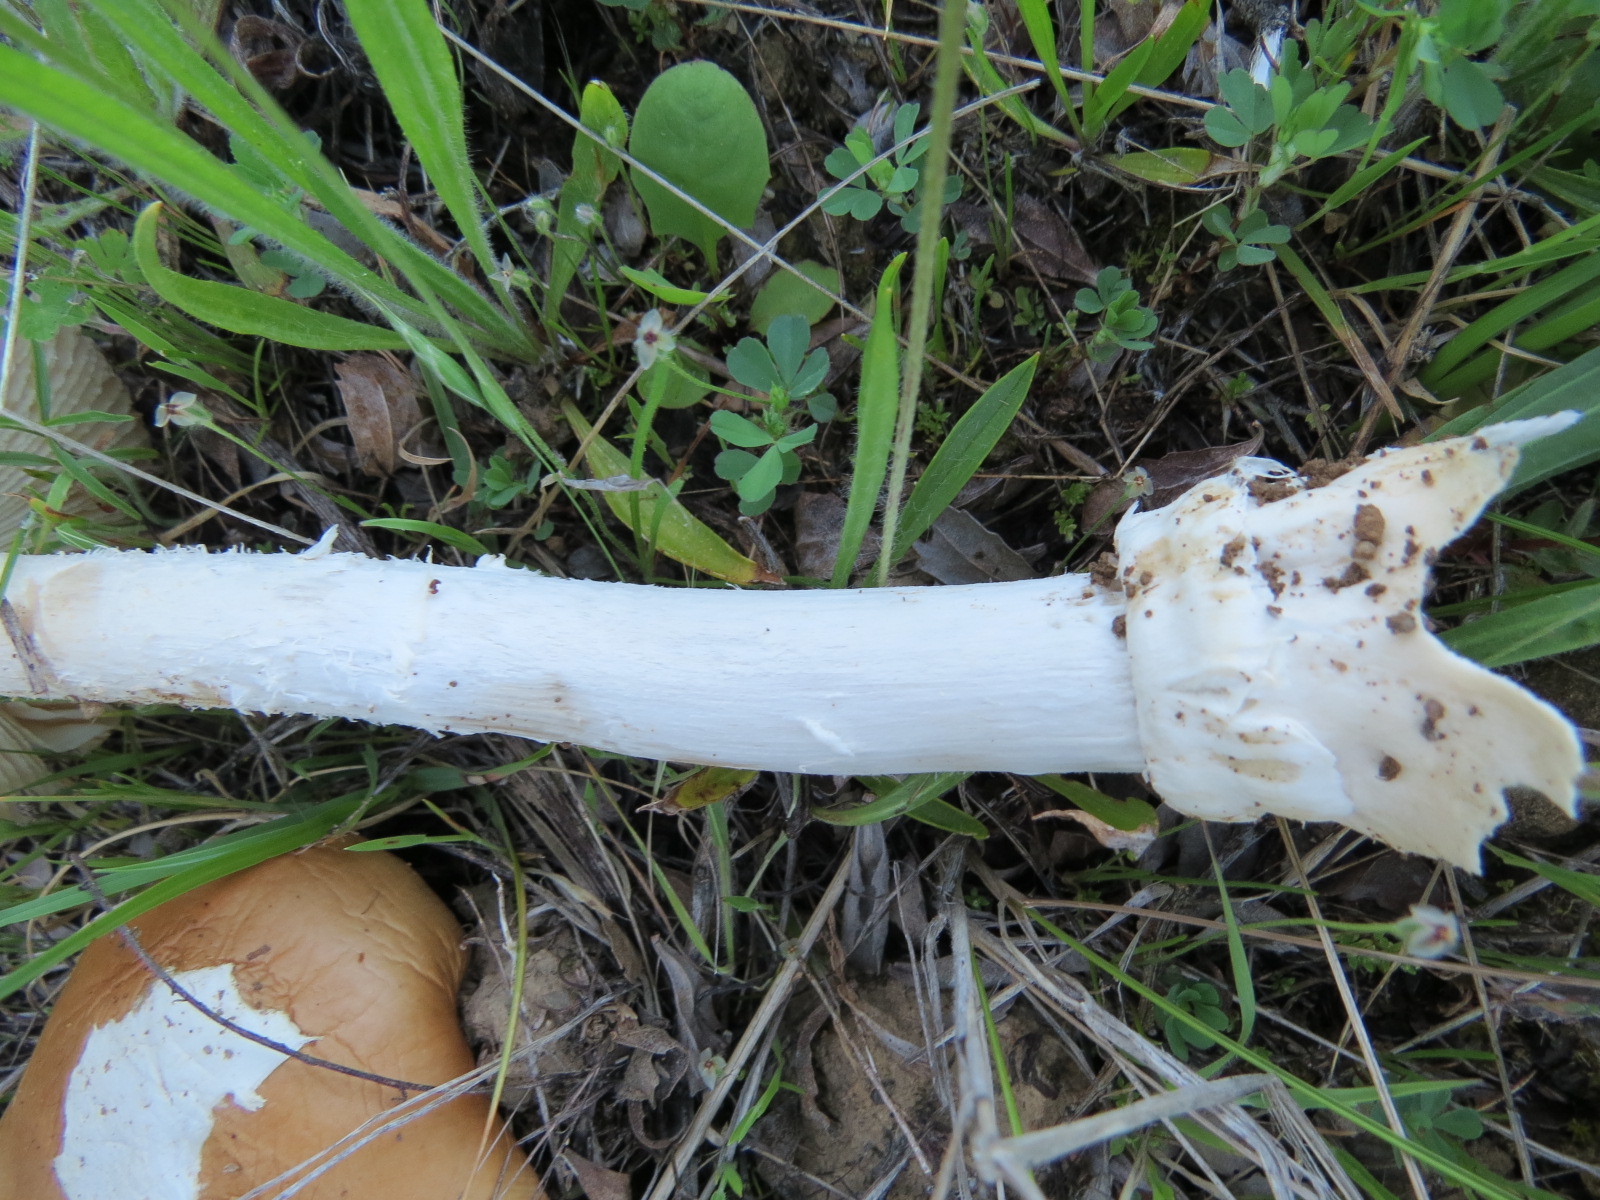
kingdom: Fungi
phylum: Basidiomycota
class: Agaricomycetes
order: Agaricales
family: Amanitaceae
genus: Amanita
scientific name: Amanita velosa
